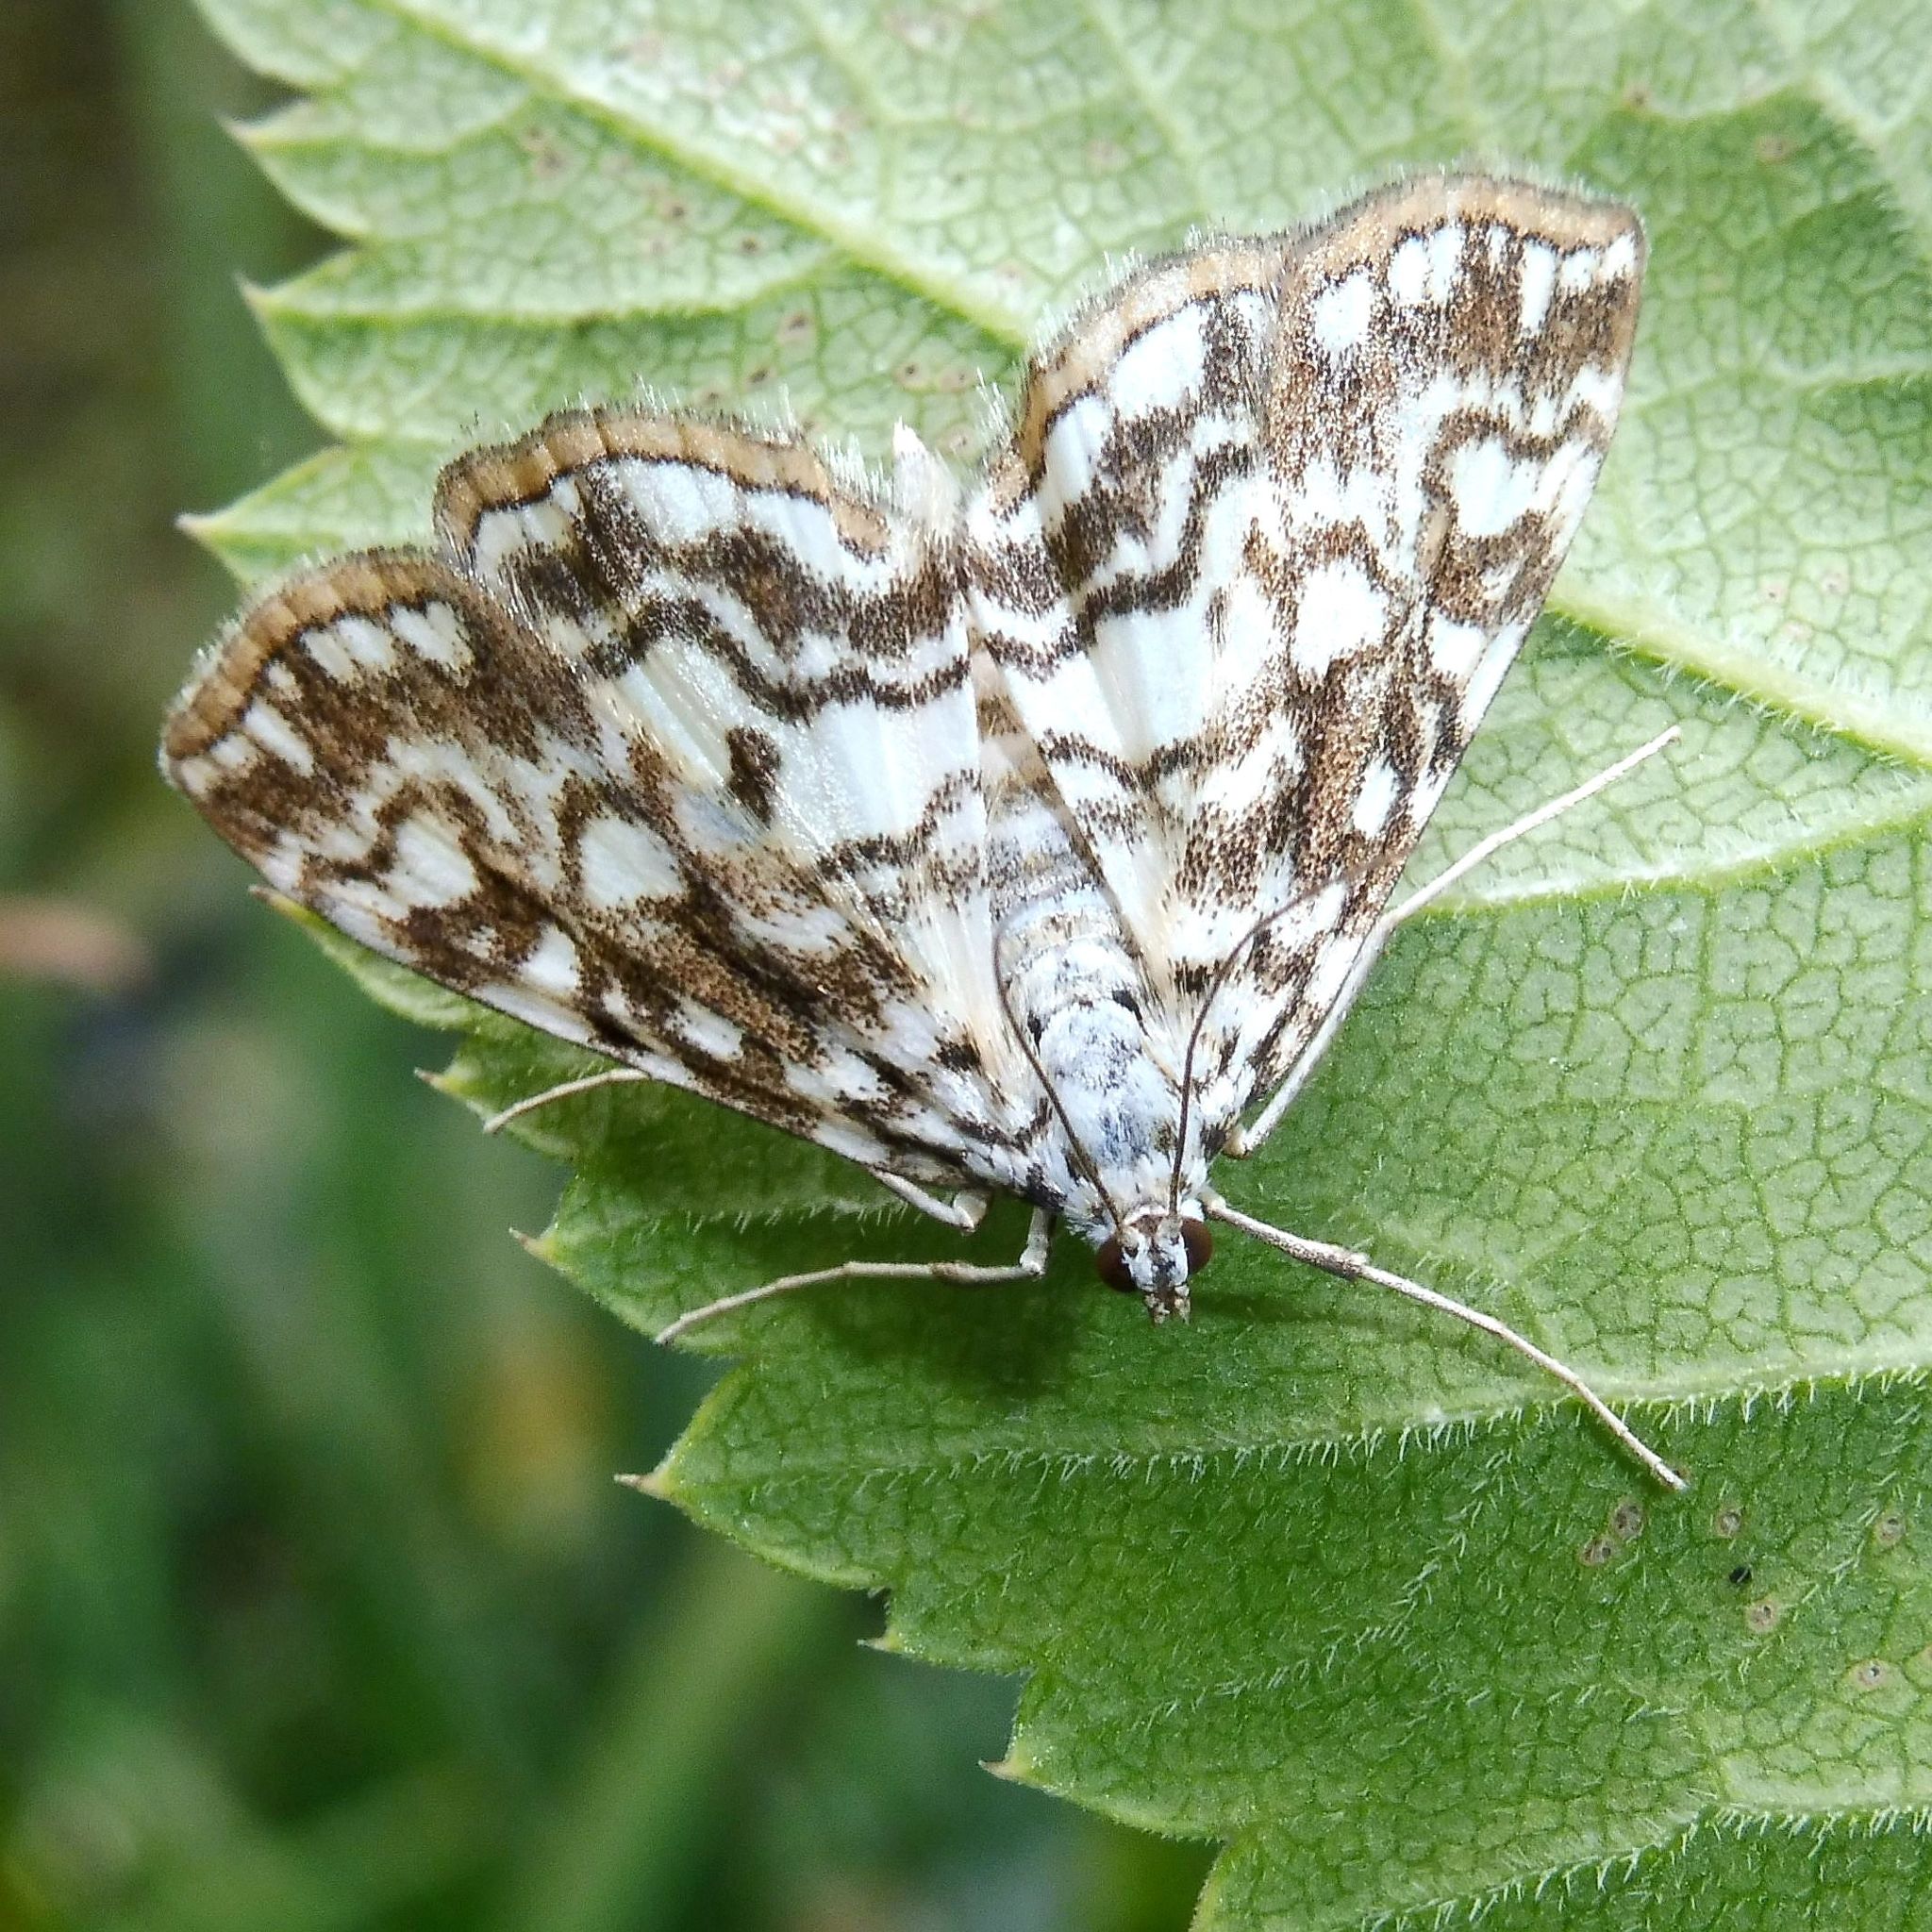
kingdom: Animalia
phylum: Arthropoda
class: Insecta
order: Lepidoptera
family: Crambidae
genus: Elophila
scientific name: Elophila nymphaeata
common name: Brown china-mark
